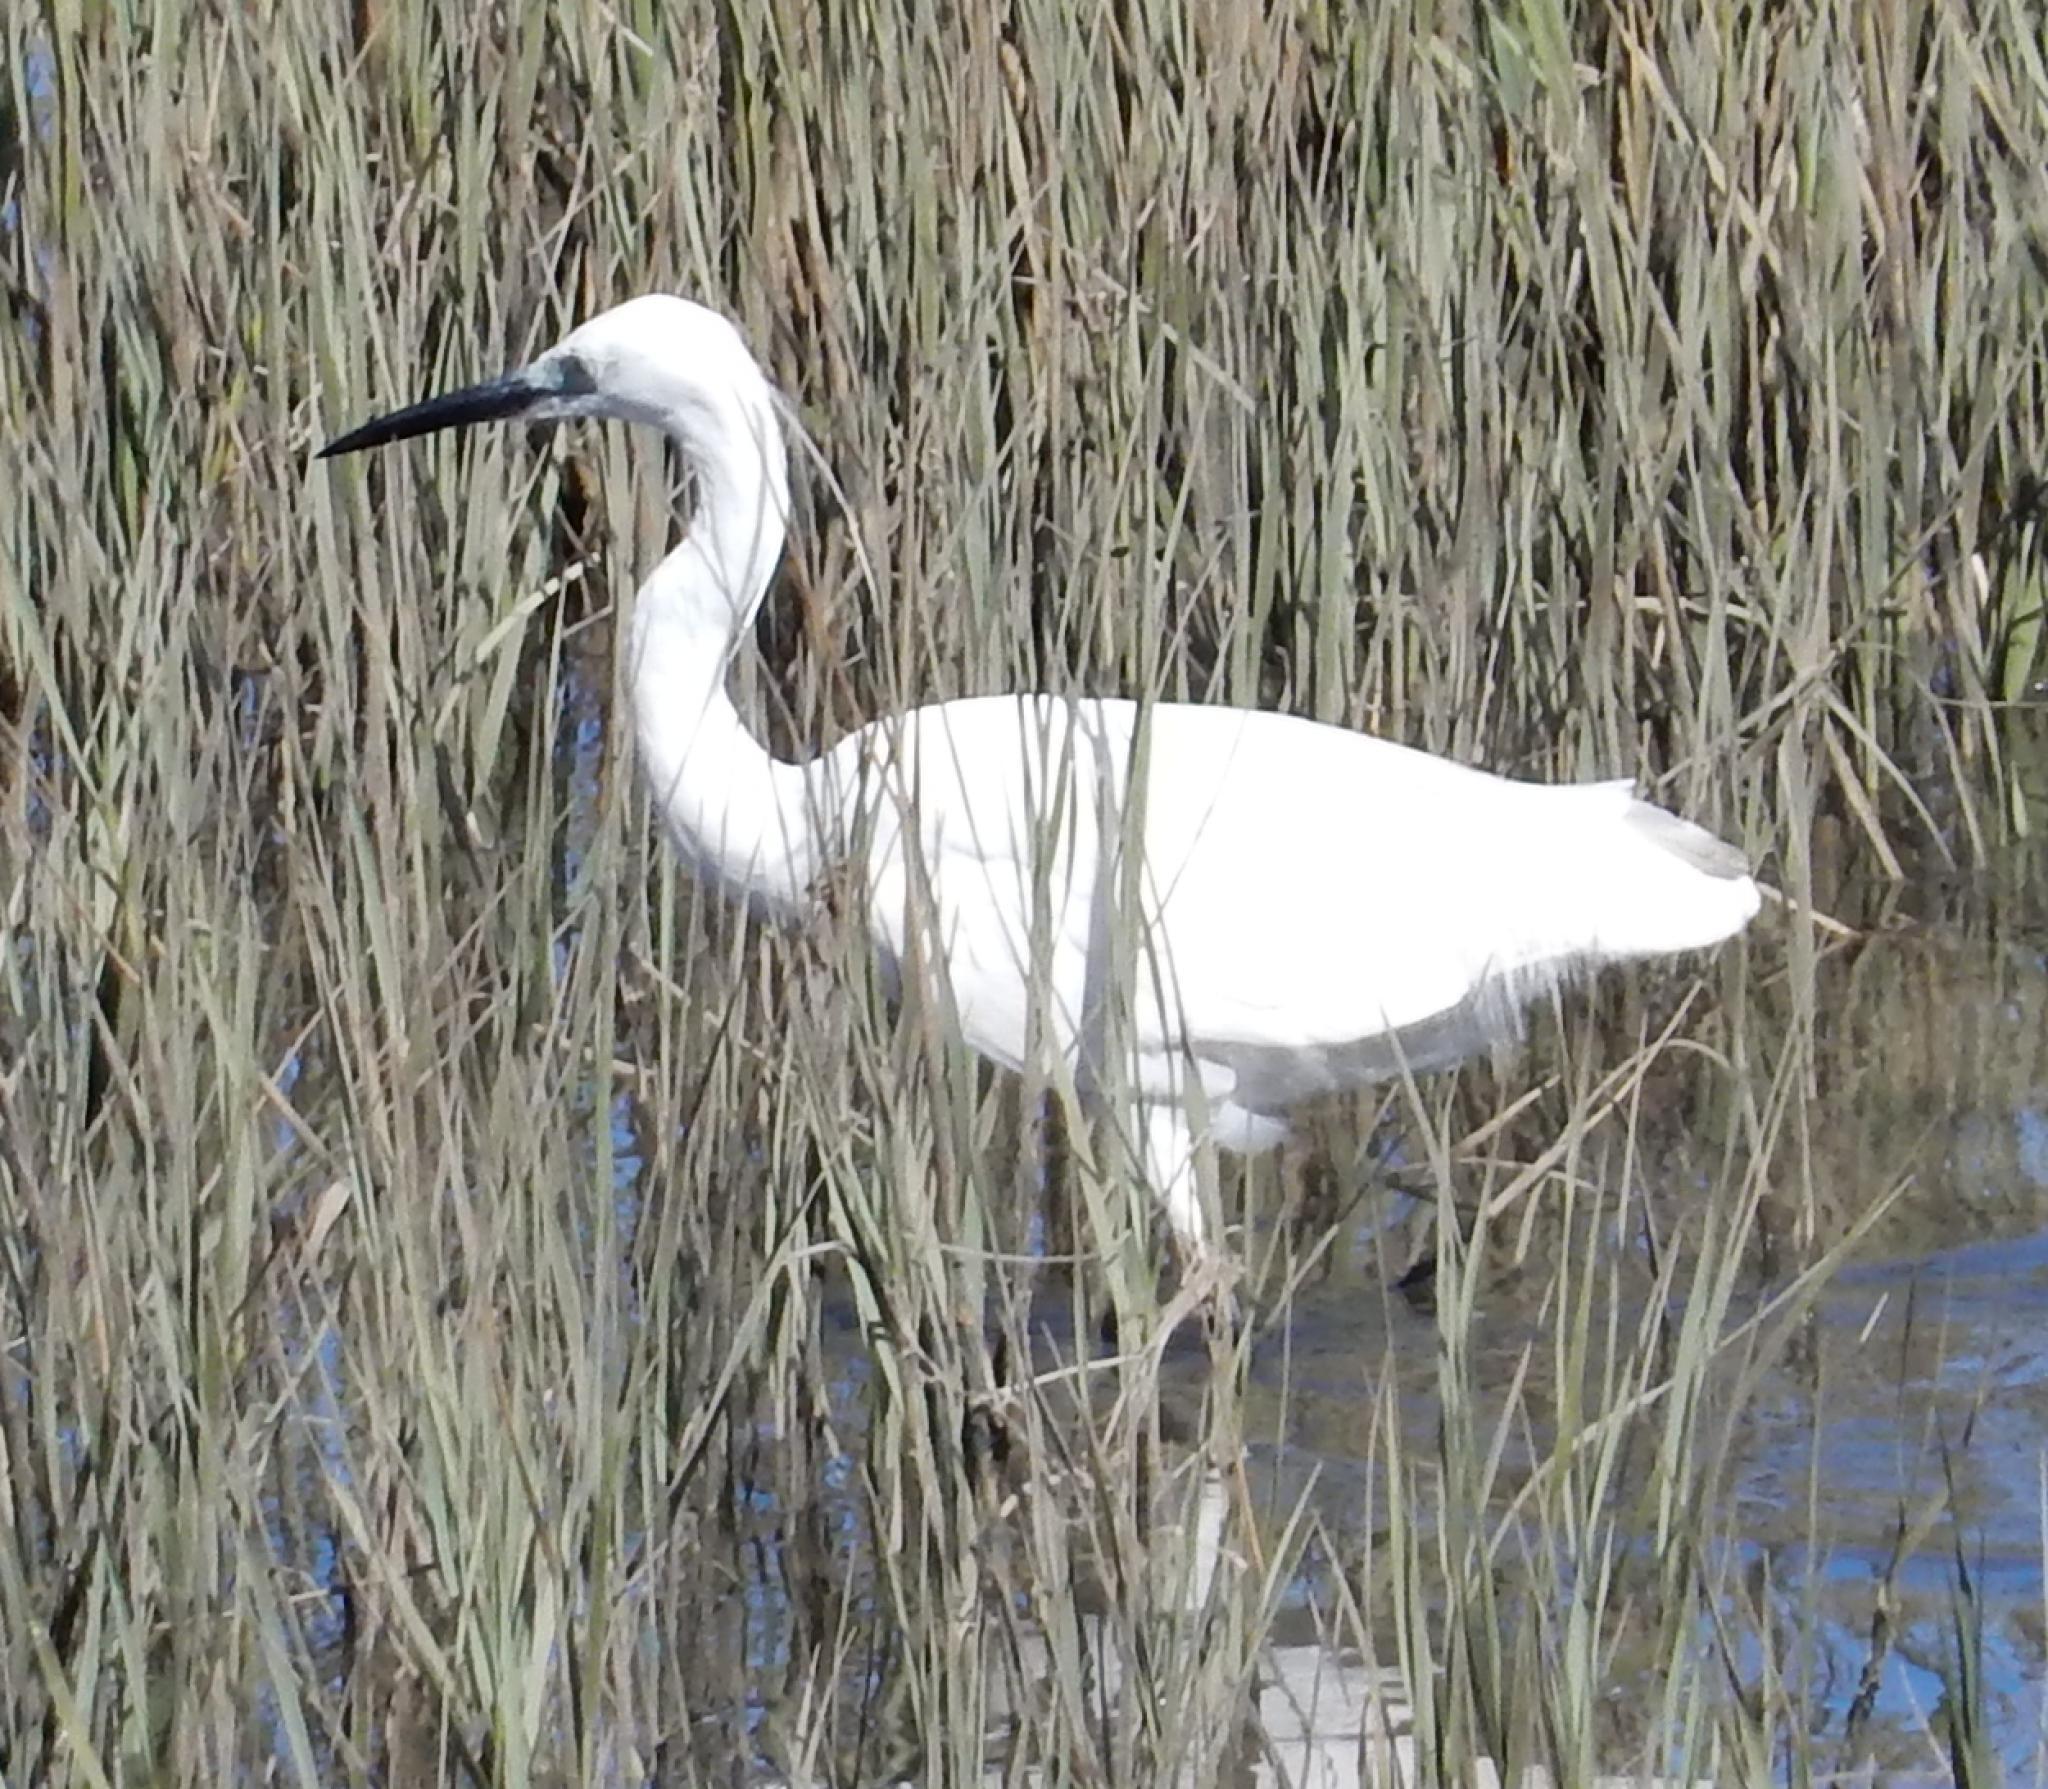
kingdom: Animalia
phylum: Chordata
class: Aves
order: Pelecaniformes
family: Ardeidae
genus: Egretta
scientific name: Egretta garzetta
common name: Little egret
